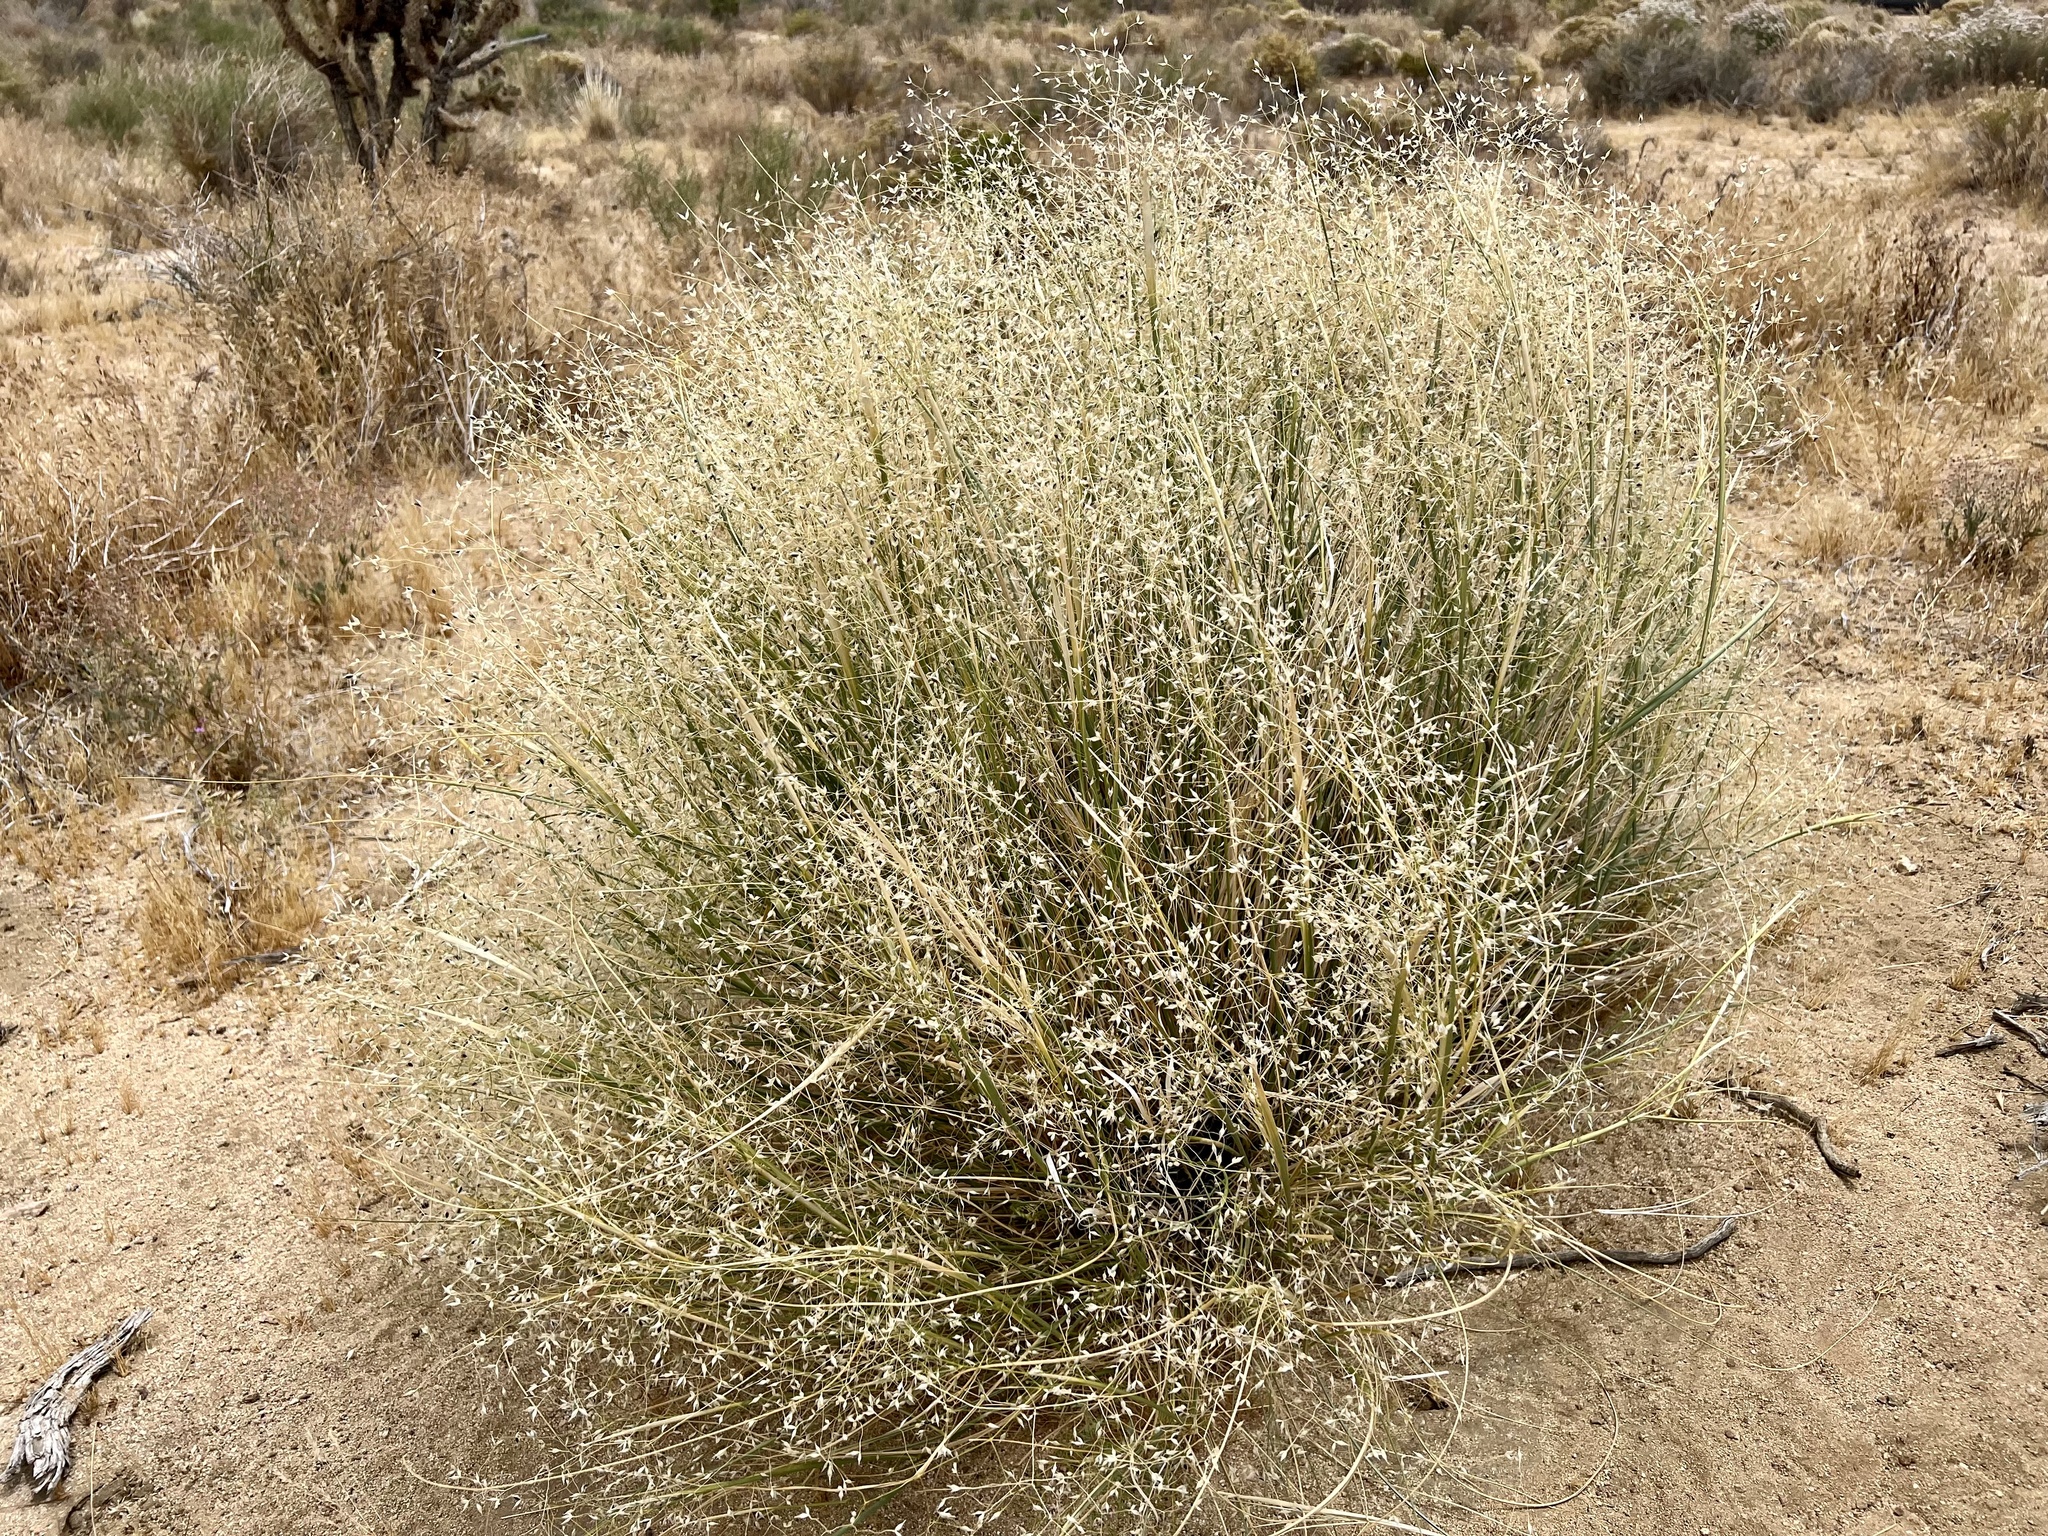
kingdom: Plantae
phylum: Tracheophyta
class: Liliopsida
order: Poales
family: Poaceae
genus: Eriocoma
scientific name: Eriocoma hymenoides
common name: Indian mountain ricegrass
